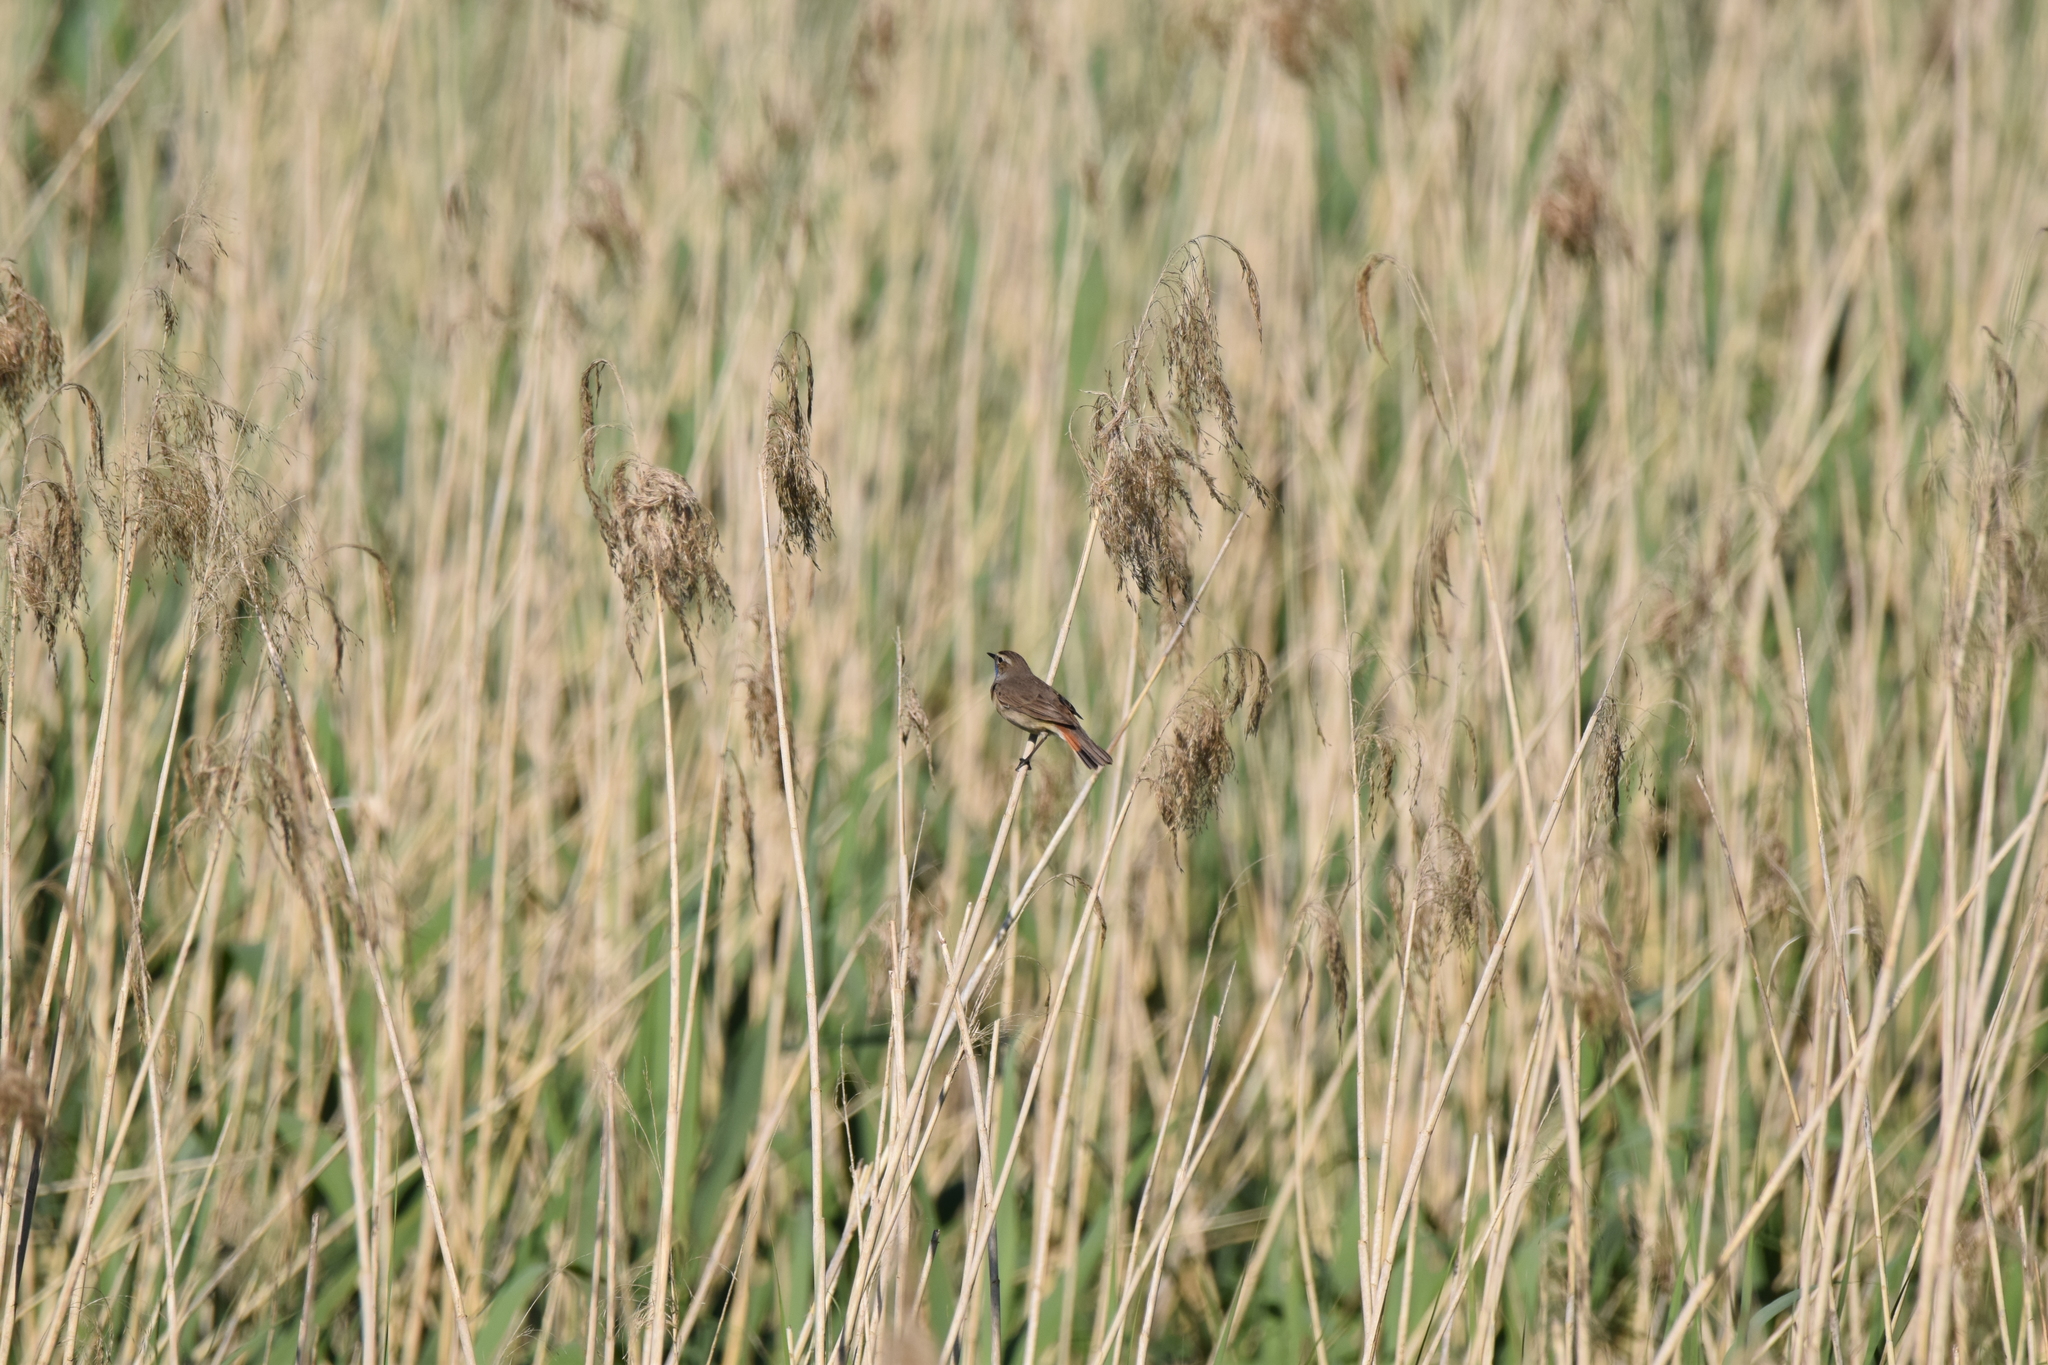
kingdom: Animalia
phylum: Chordata
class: Aves
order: Passeriformes
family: Muscicapidae
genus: Luscinia
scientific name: Luscinia svecica
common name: Bluethroat
